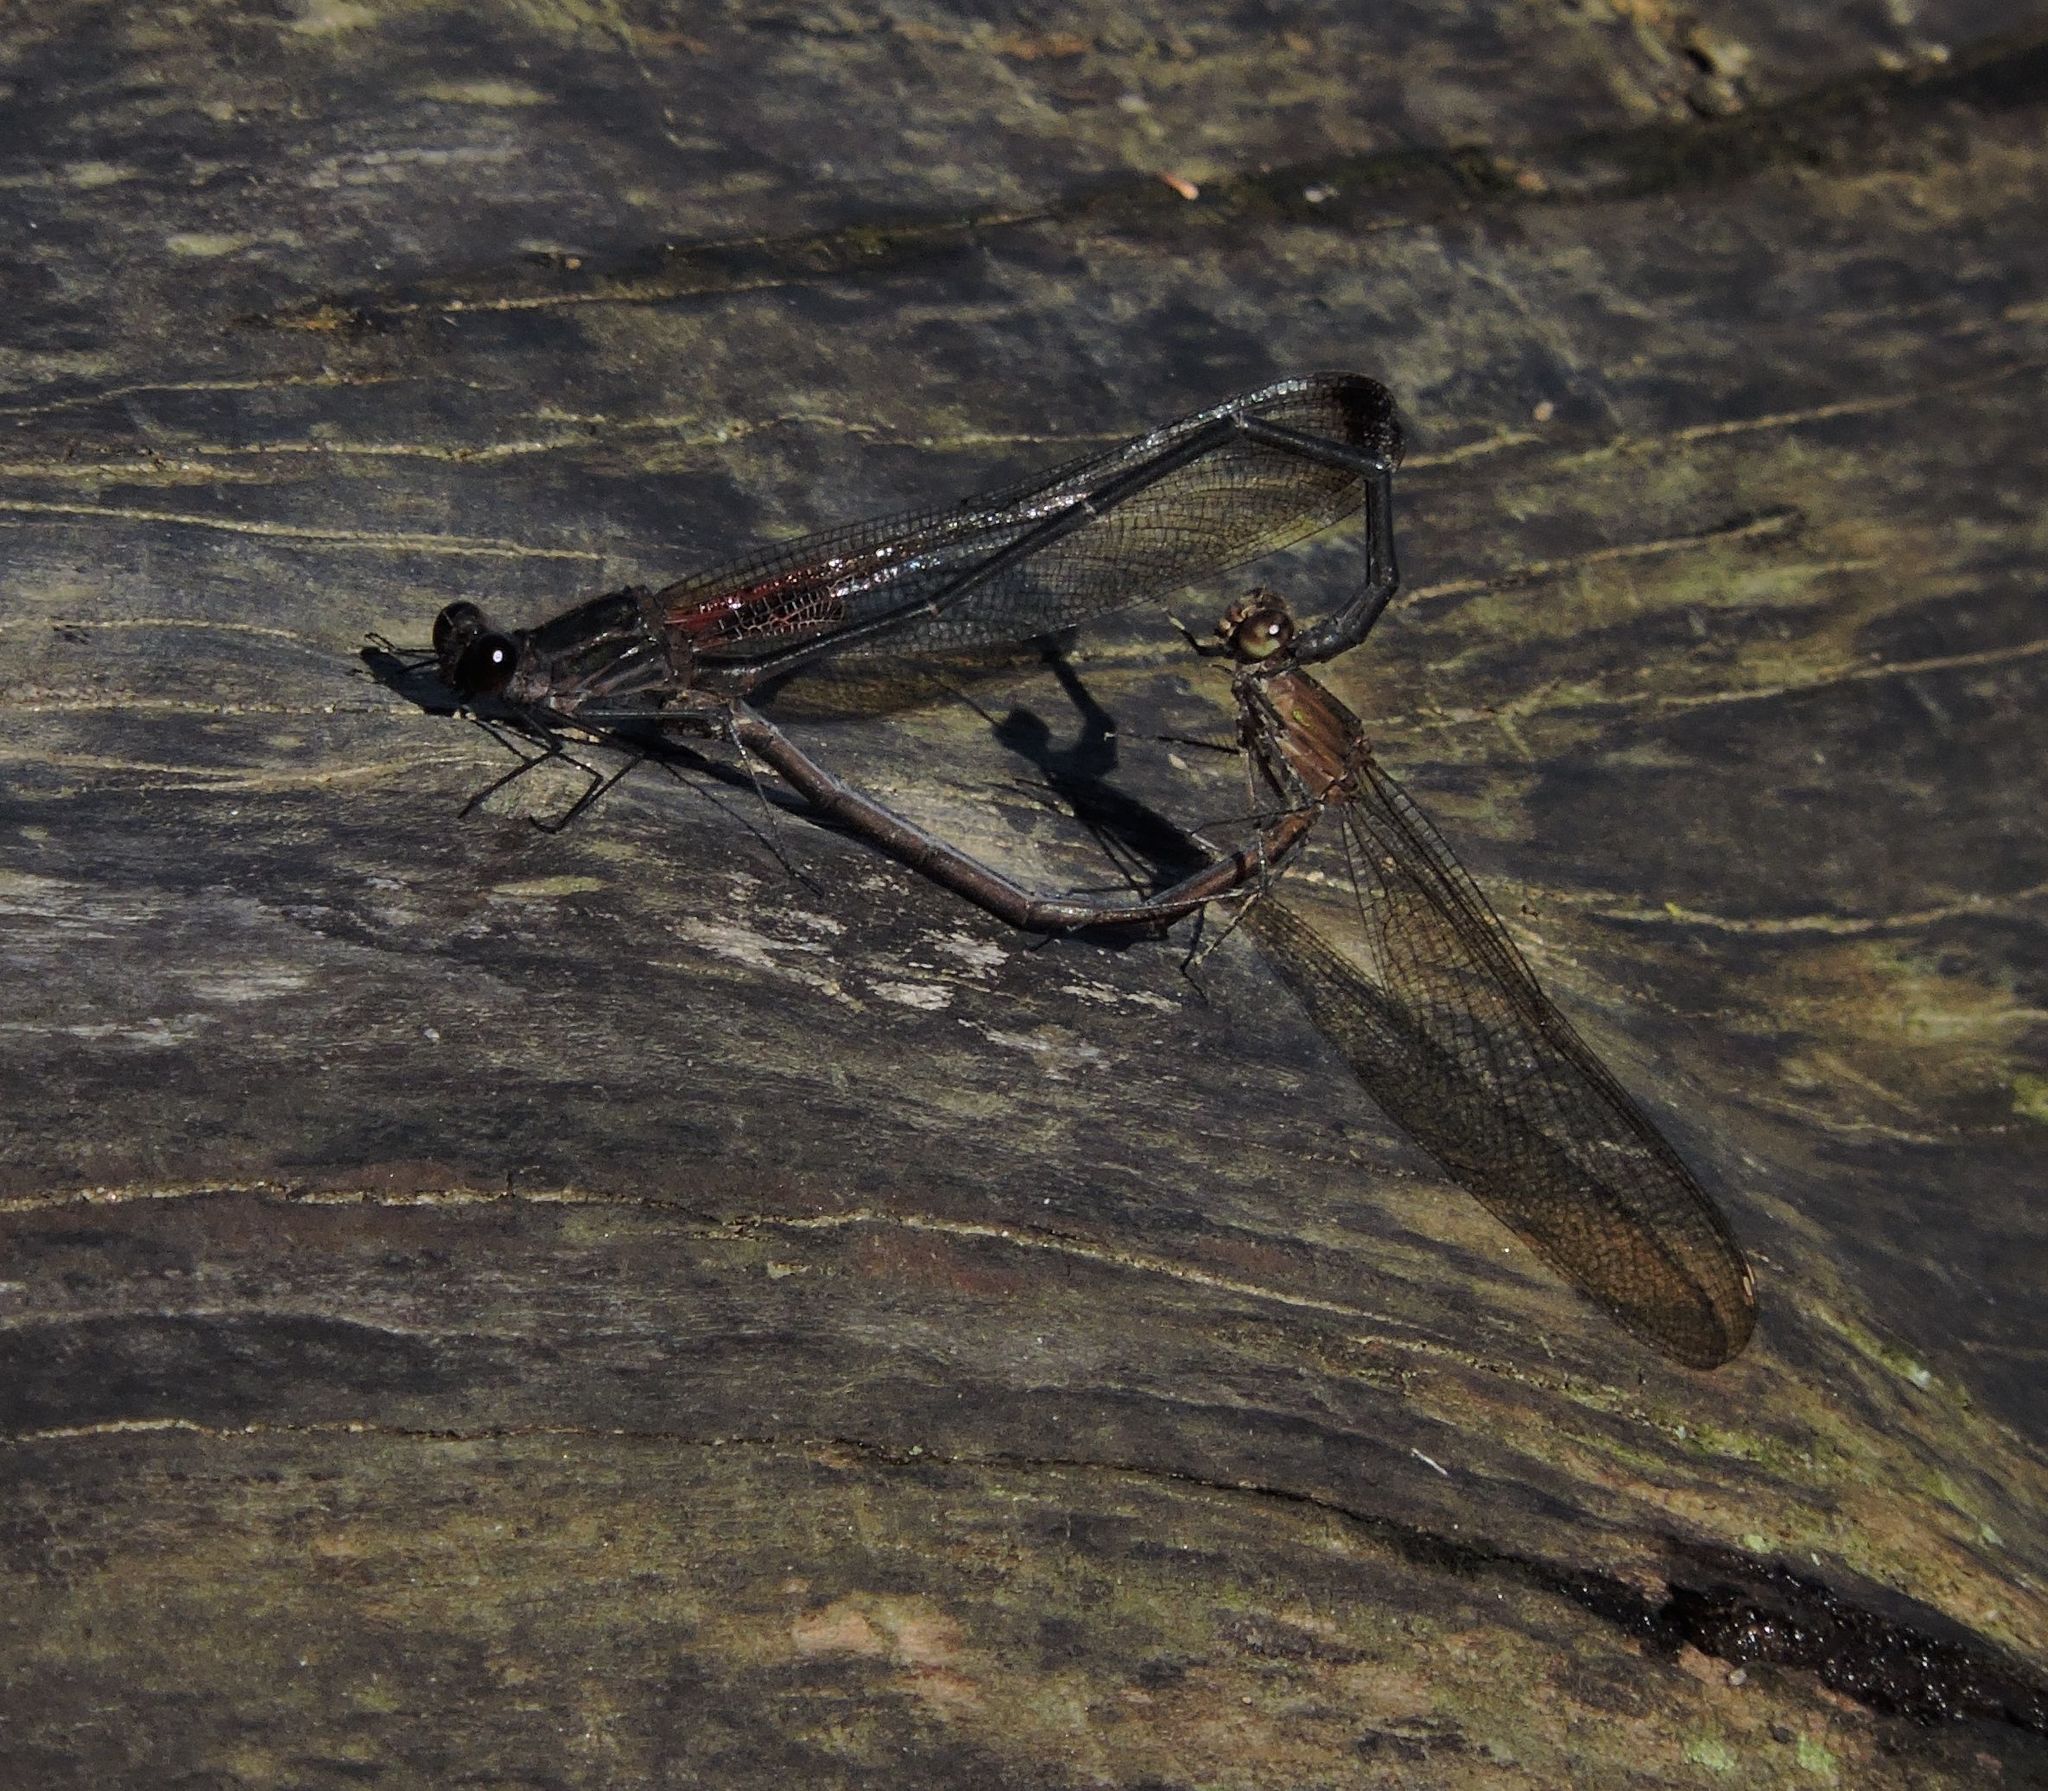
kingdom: Animalia
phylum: Arthropoda
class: Insecta
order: Odonata
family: Calopterygidae
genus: Hetaerina
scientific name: Hetaerina titia
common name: Smoky rubyspot
